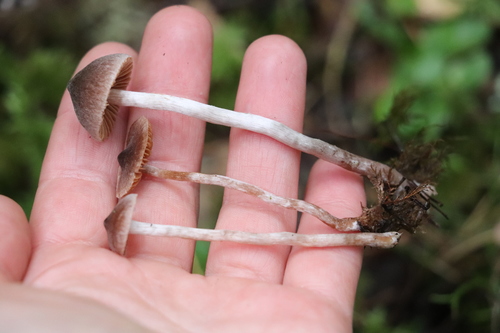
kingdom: Fungi
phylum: Basidiomycota
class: Agaricomycetes
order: Agaricales
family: Cortinariaceae
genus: Cortinarius
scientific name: Cortinarius
